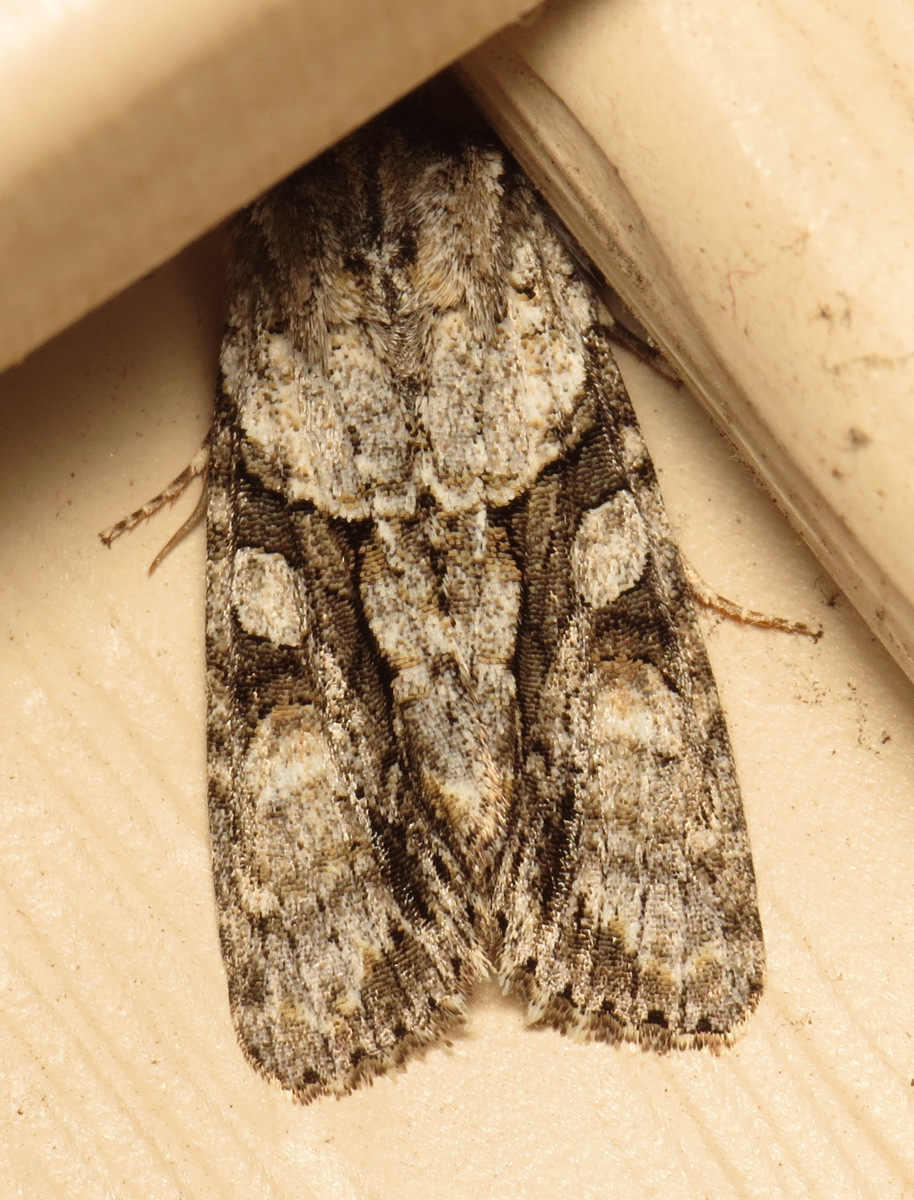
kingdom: Animalia
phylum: Arthropoda
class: Insecta
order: Lepidoptera
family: Noctuidae
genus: Achatia
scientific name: Achatia distincta
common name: Distinct quaker
